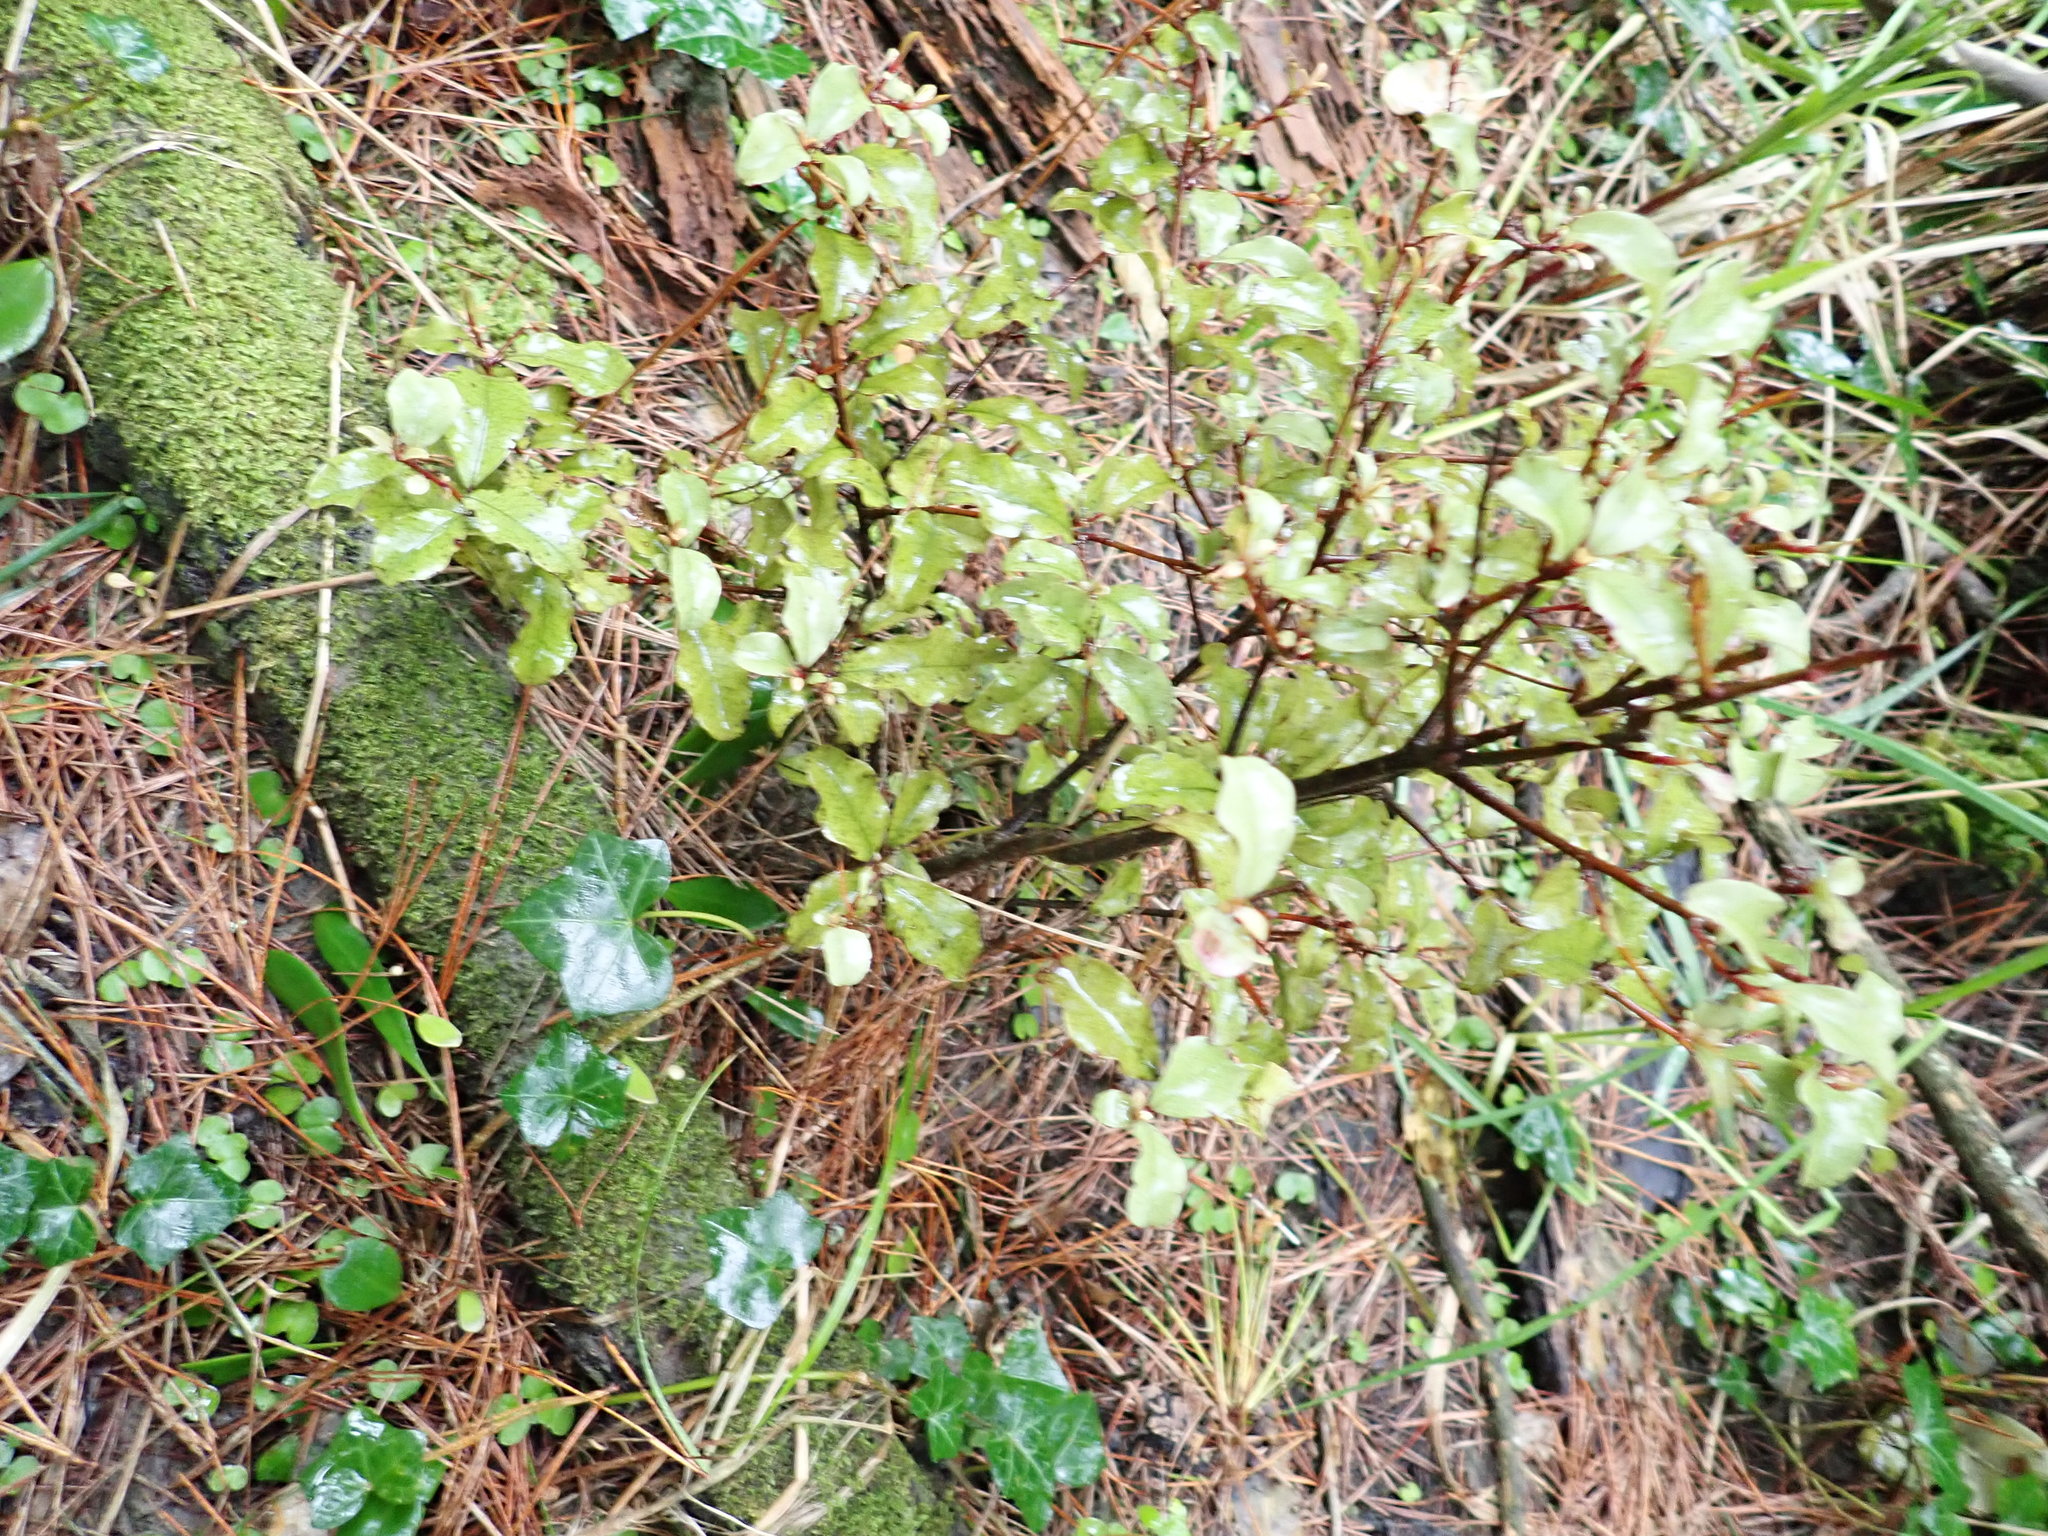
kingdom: Plantae
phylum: Tracheophyta
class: Magnoliopsida
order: Ericales
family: Primulaceae
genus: Myrsine
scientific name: Myrsine australis
